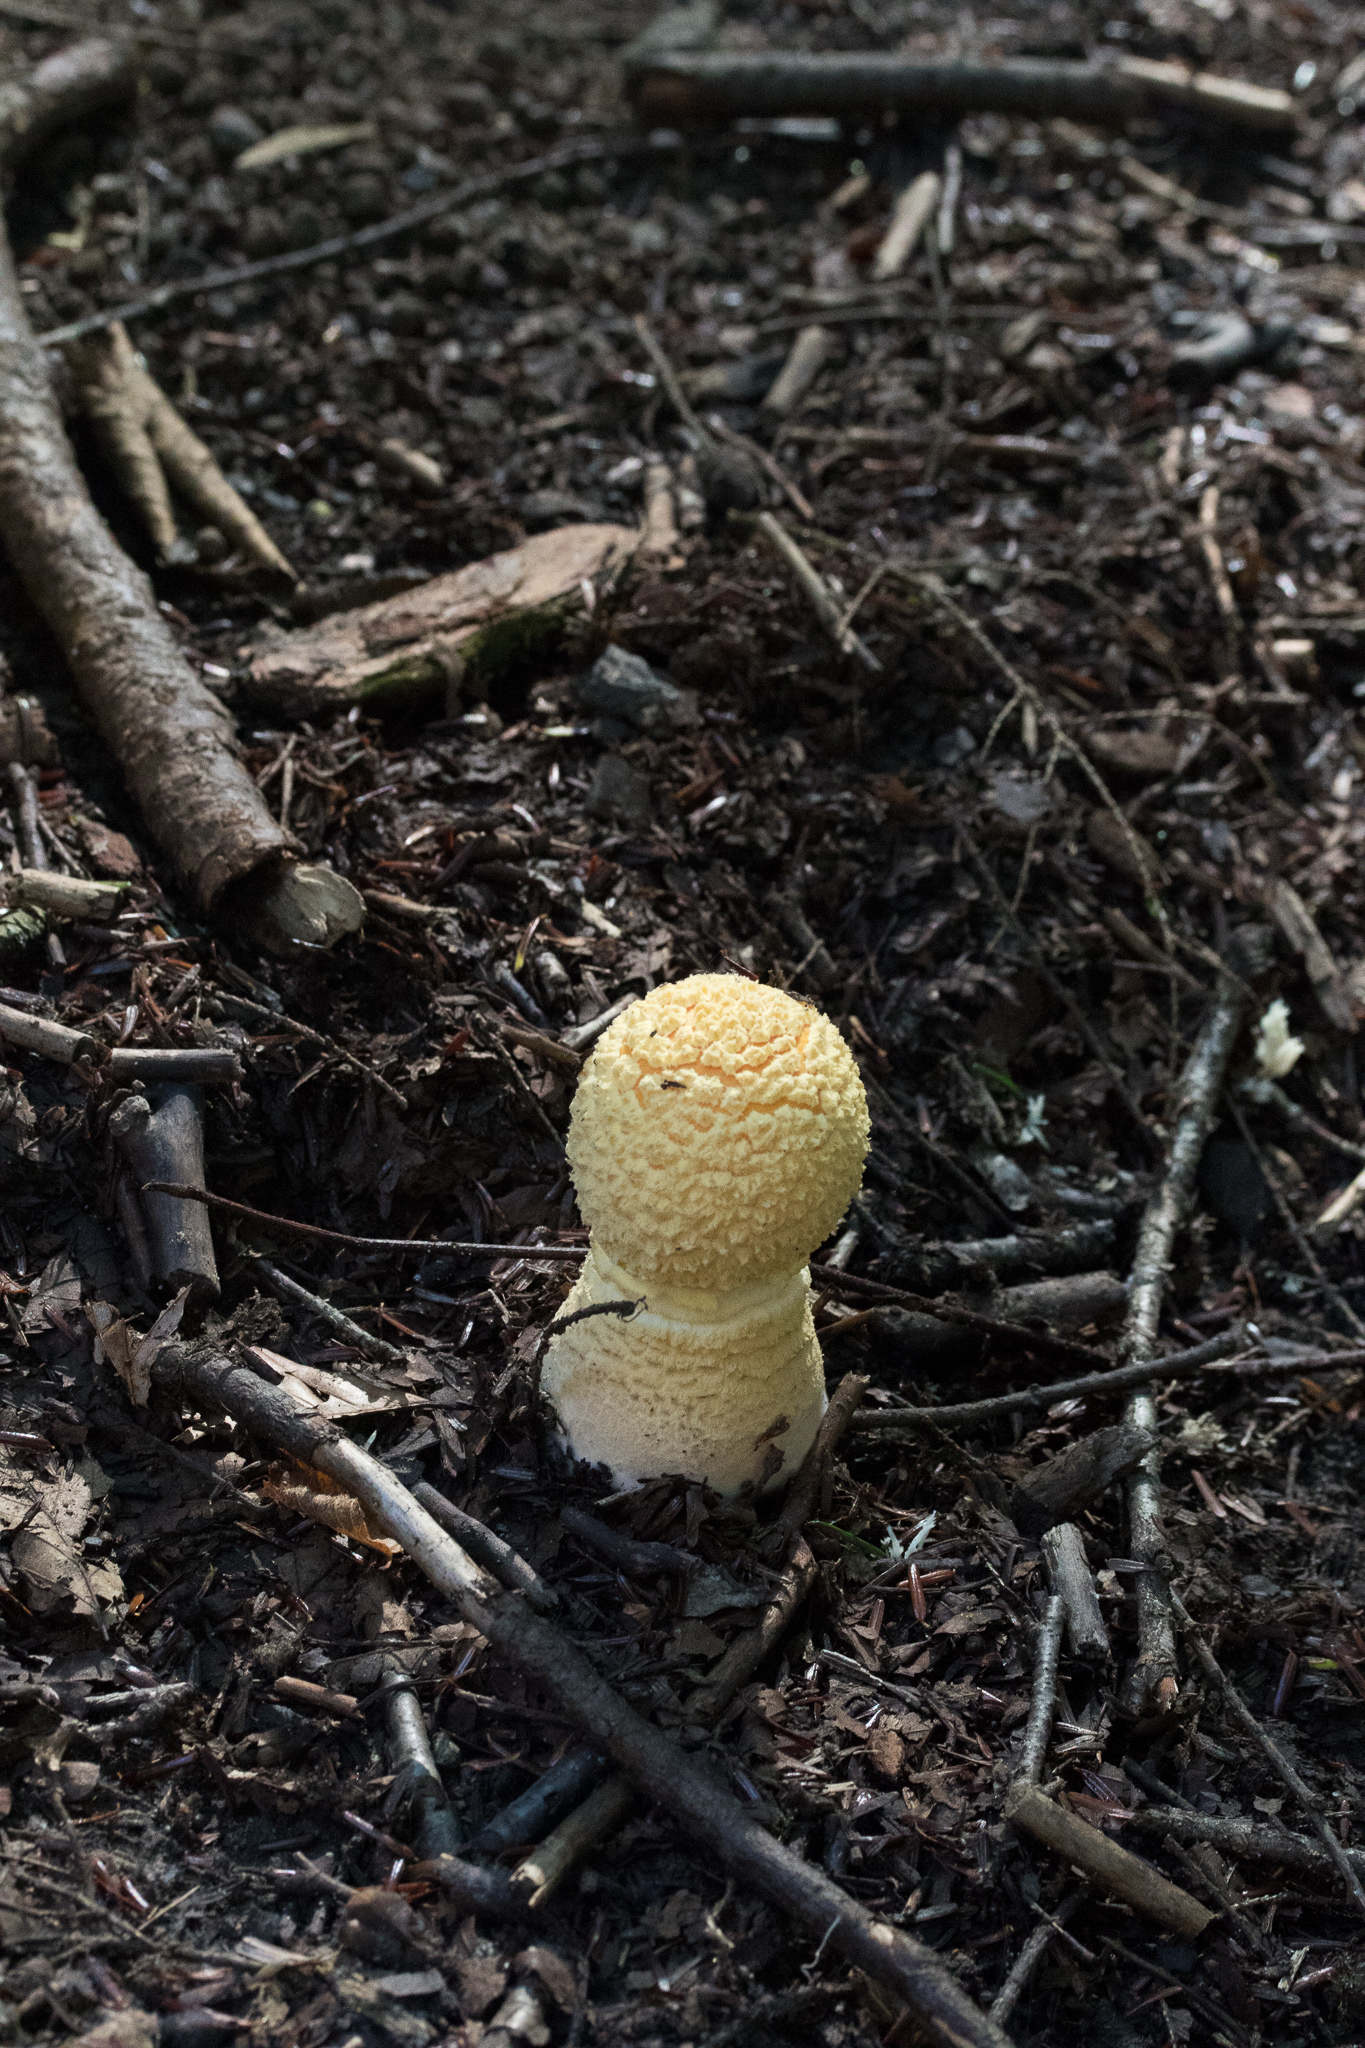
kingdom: Fungi
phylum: Basidiomycota
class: Agaricomycetes
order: Agaricales
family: Amanitaceae
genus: Amanita
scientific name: Amanita muscaria
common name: Fly agaric
